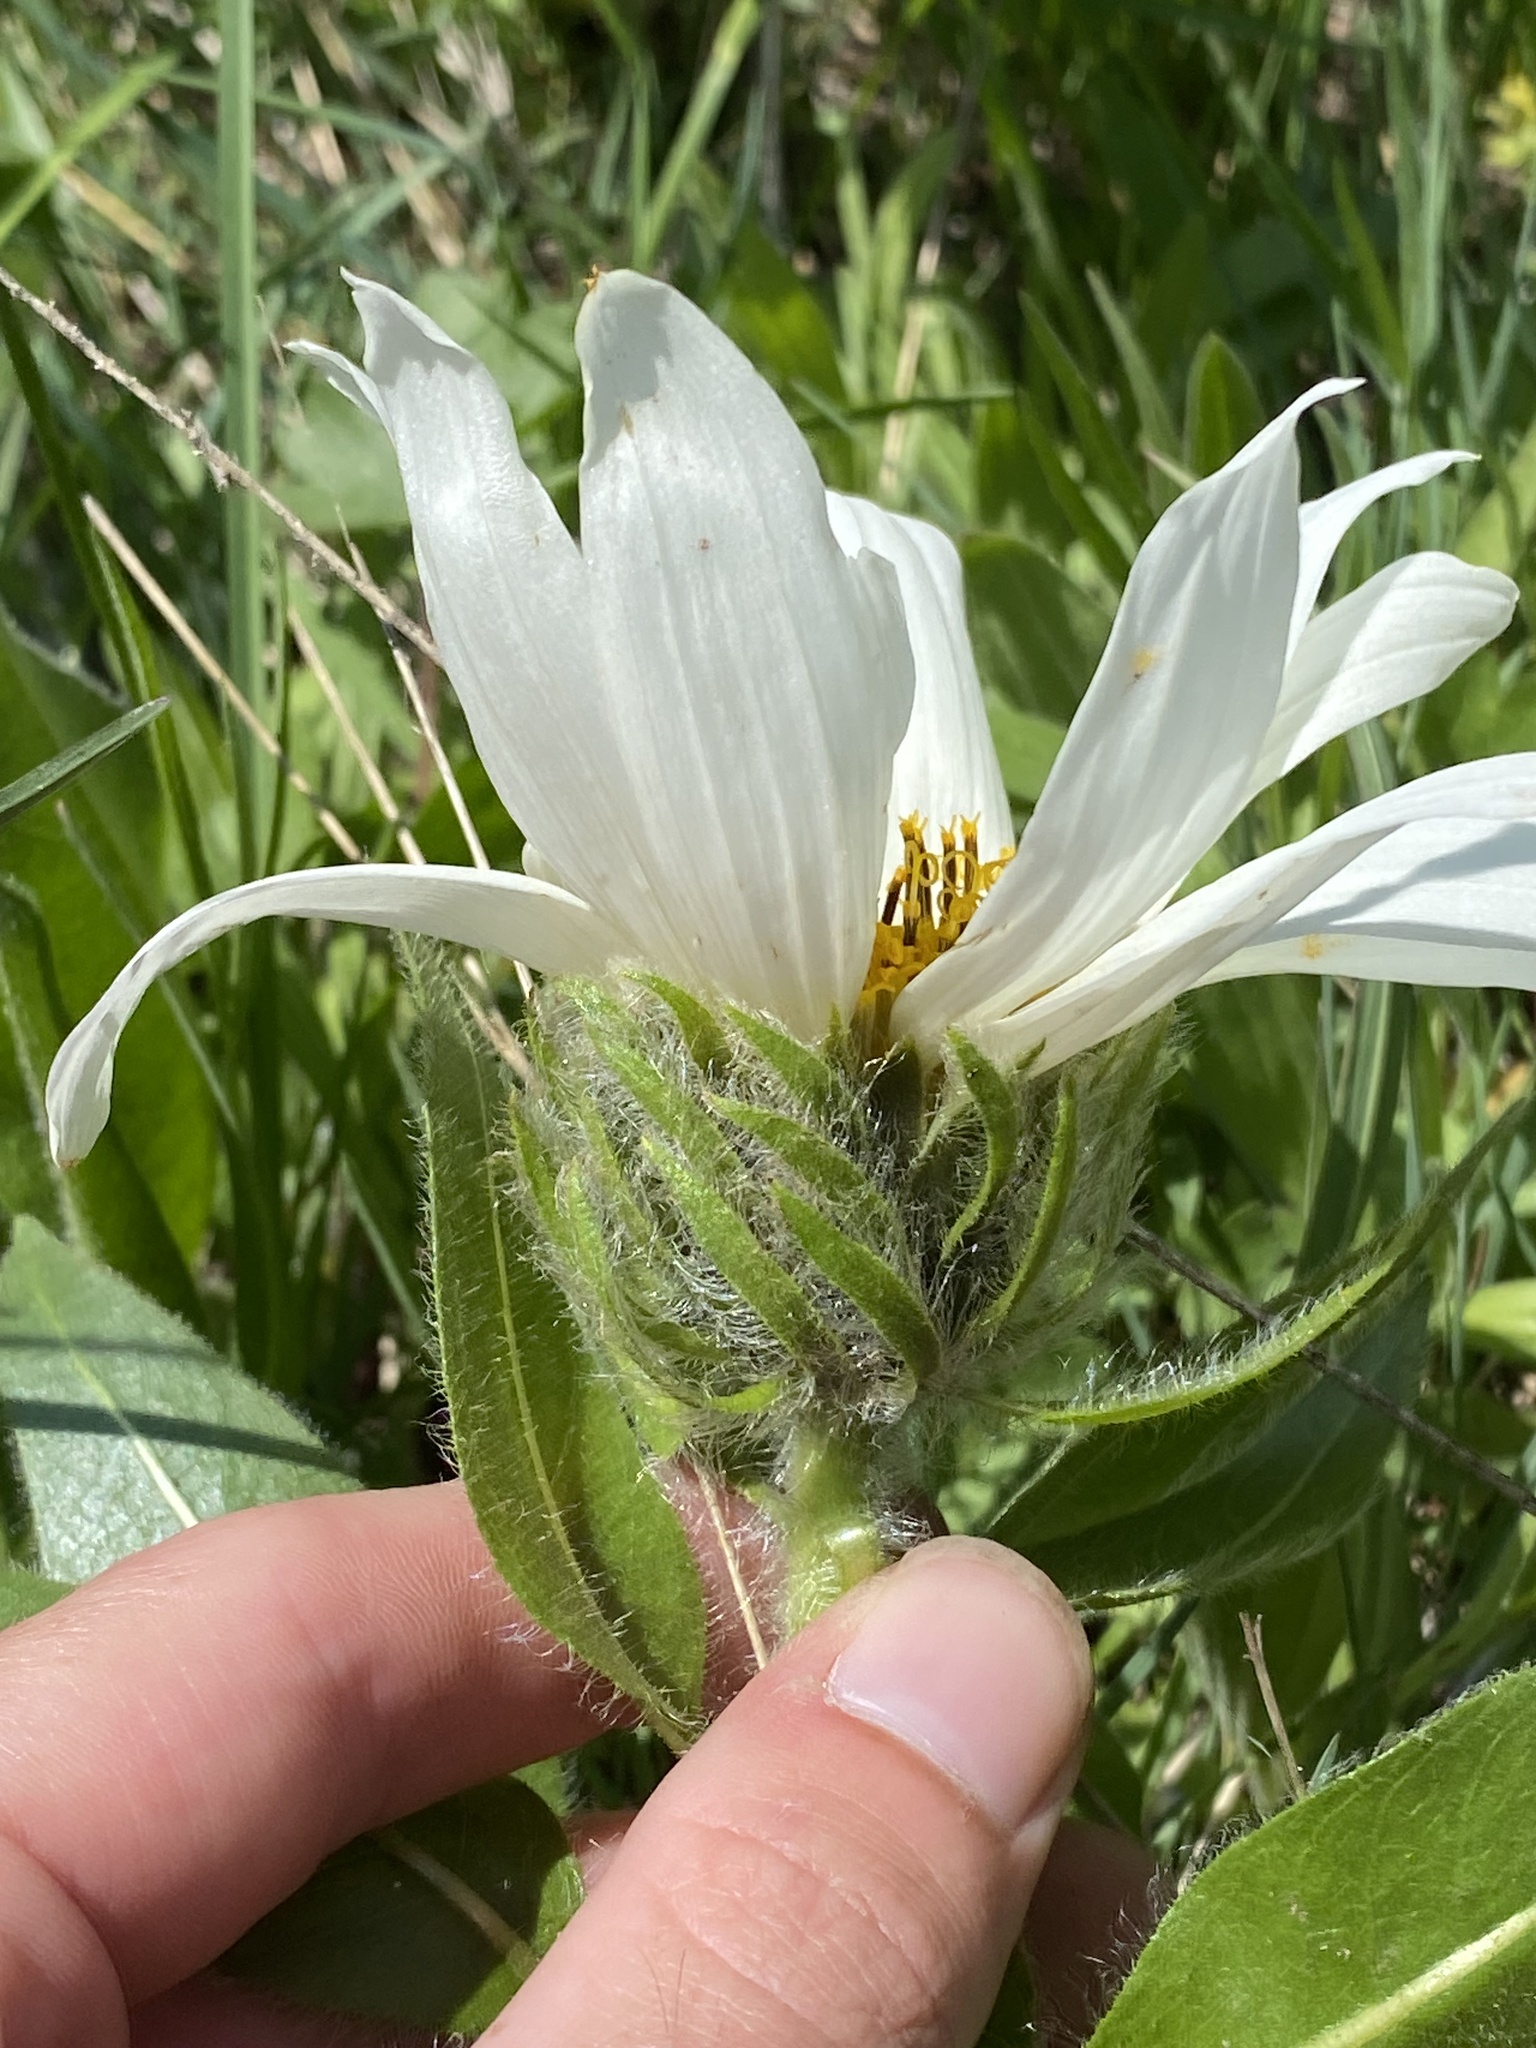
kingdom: Plantae
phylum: Tracheophyta
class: Magnoliopsida
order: Asterales
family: Asteraceae
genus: Wyethia
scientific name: Wyethia helianthoides
